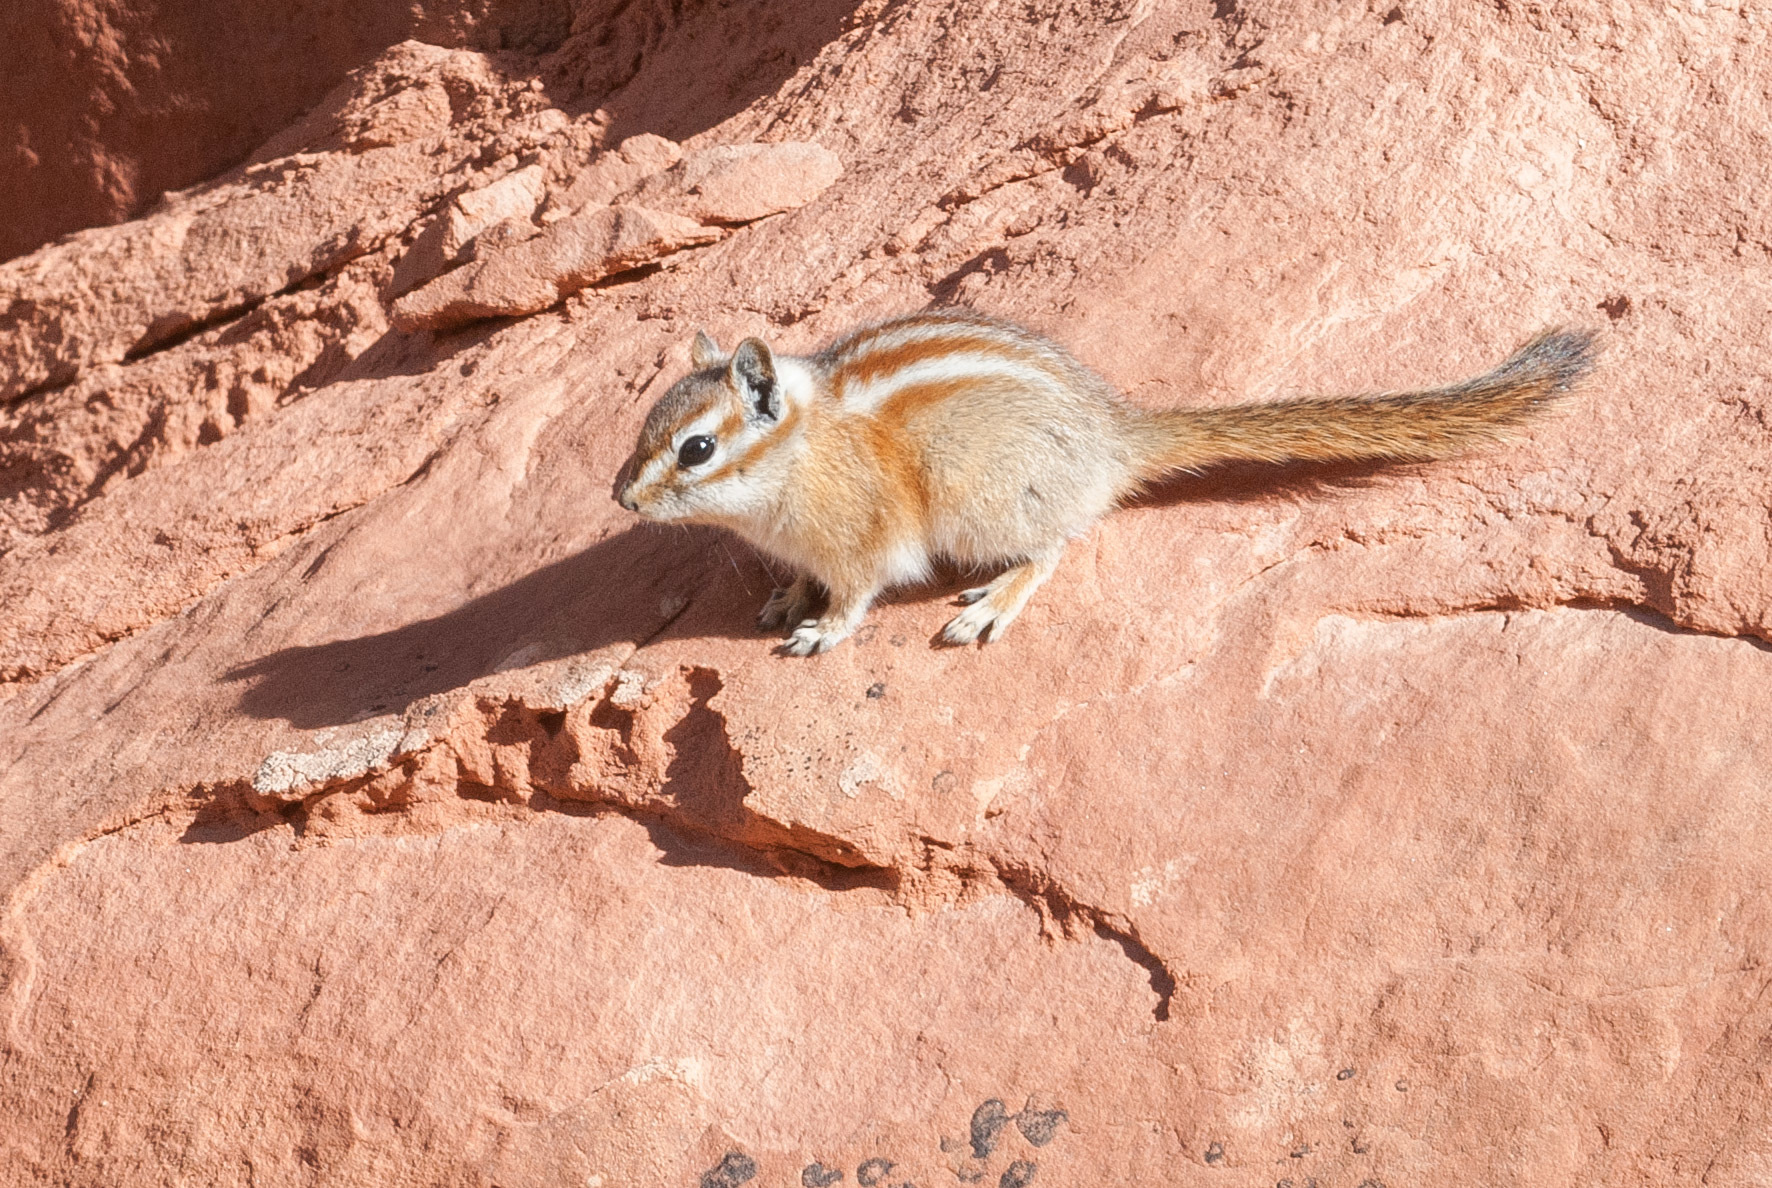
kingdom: Animalia
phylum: Chordata
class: Mammalia
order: Rodentia
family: Sciuridae
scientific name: Sciuridae
